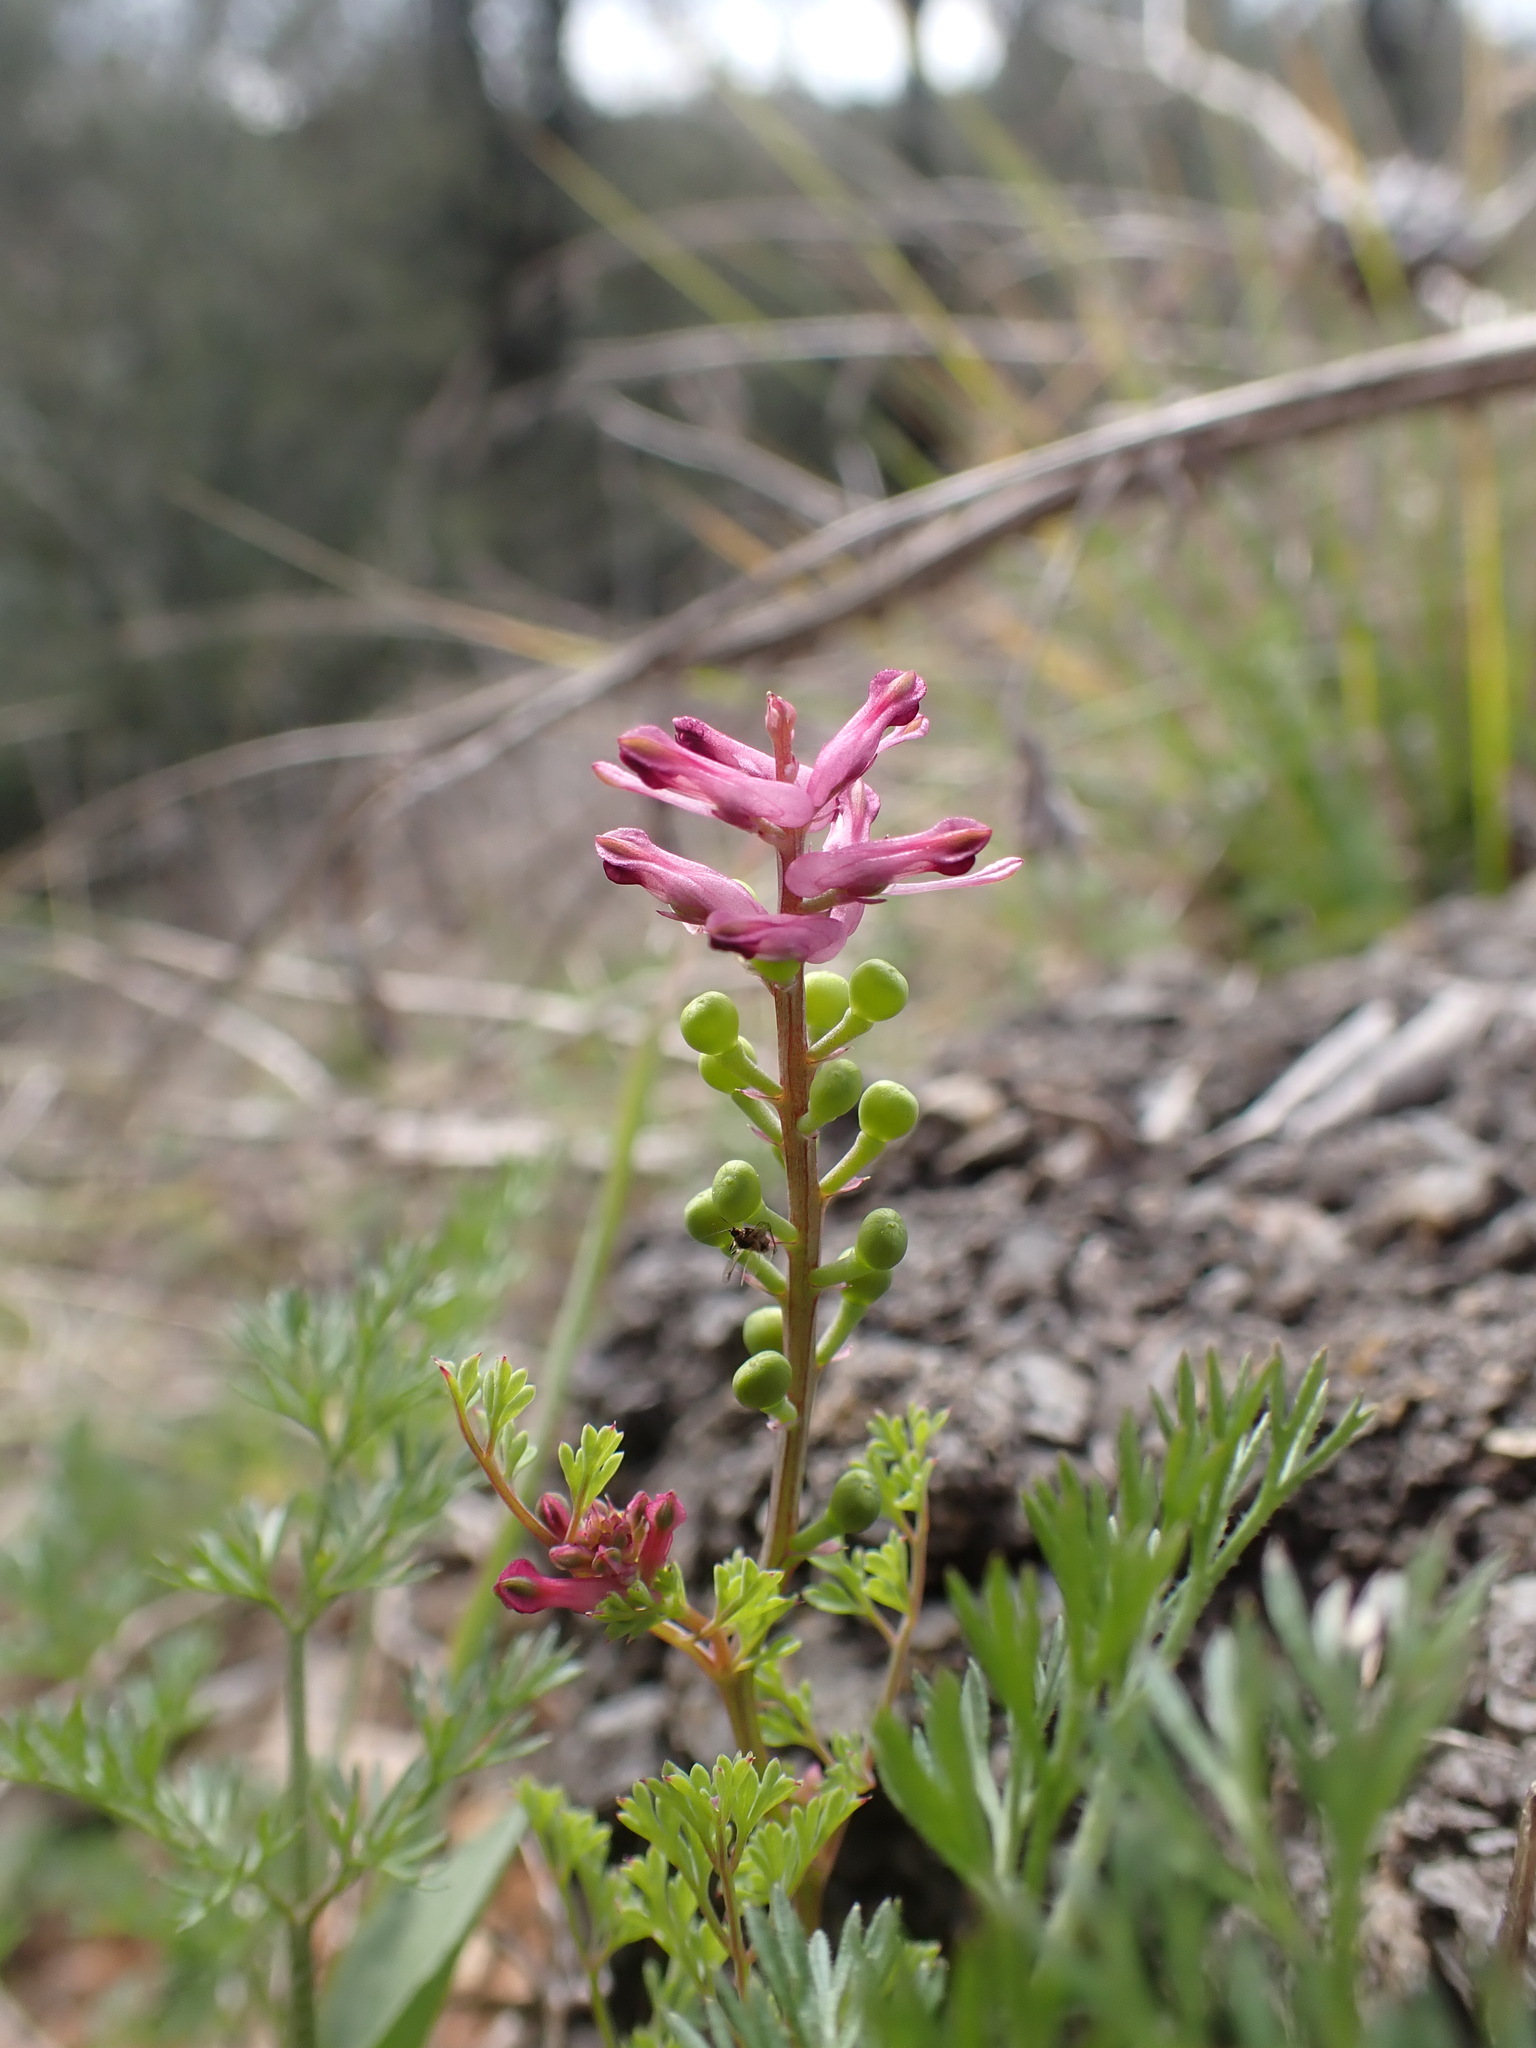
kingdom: Plantae
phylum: Tracheophyta
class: Magnoliopsida
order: Ranunculales
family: Papaveraceae
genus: Fumaria
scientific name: Fumaria officinalis
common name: Common fumitory
